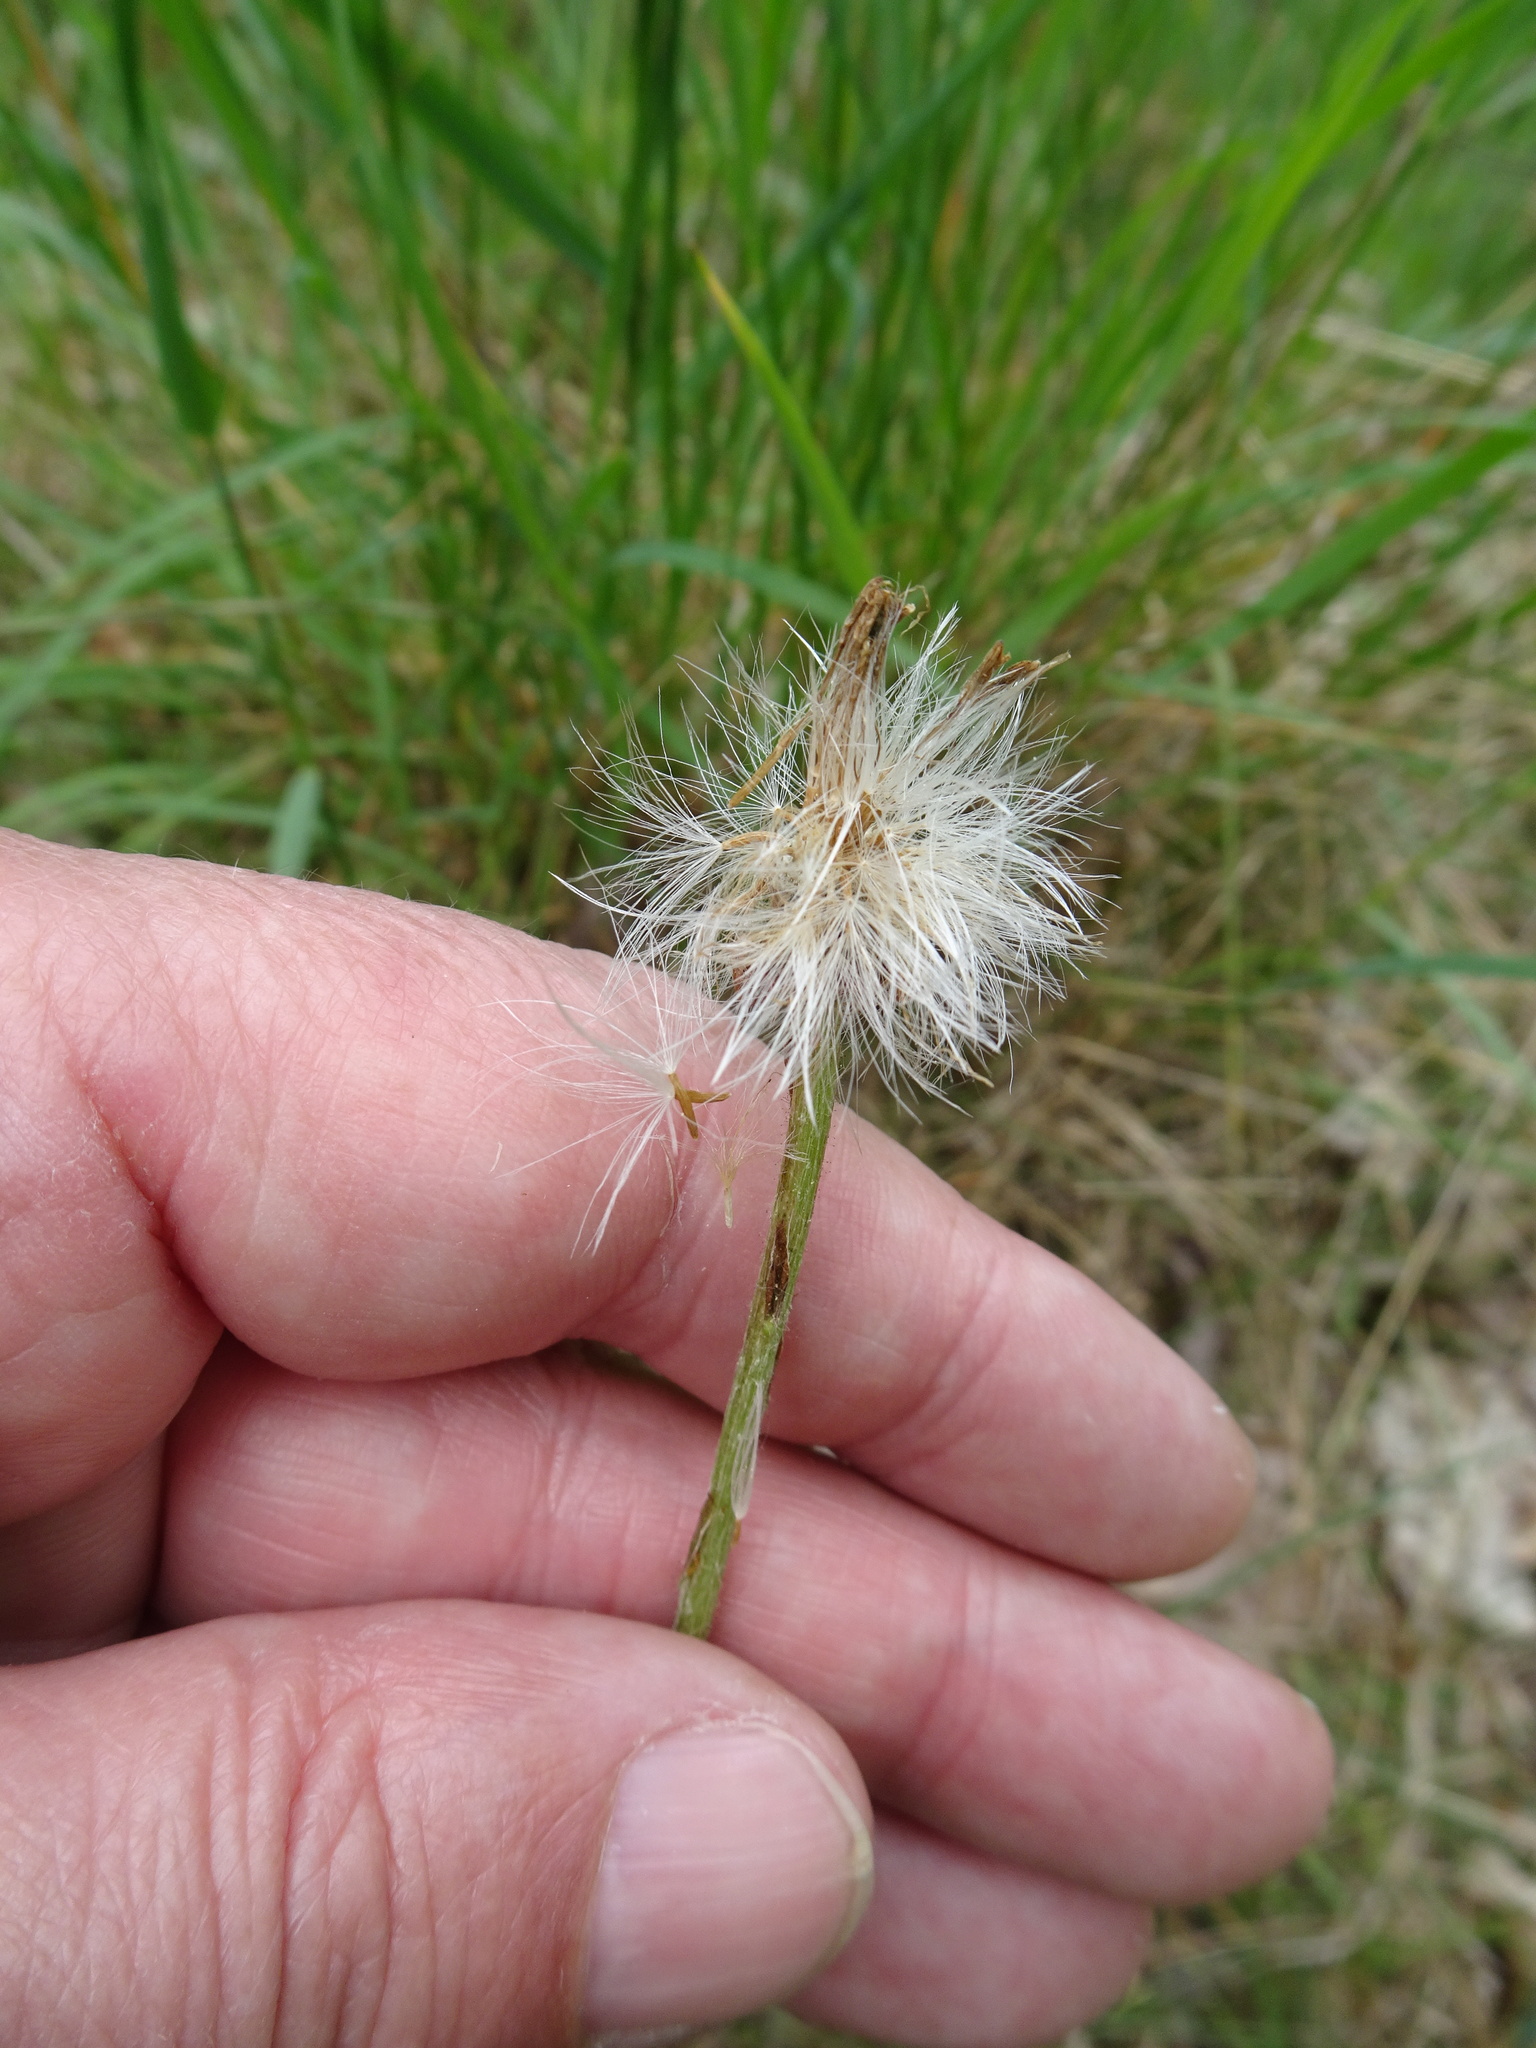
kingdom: Plantae
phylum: Tracheophyta
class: Magnoliopsida
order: Asterales
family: Asteraceae
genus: Tussilago
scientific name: Tussilago farfara
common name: Coltsfoot
